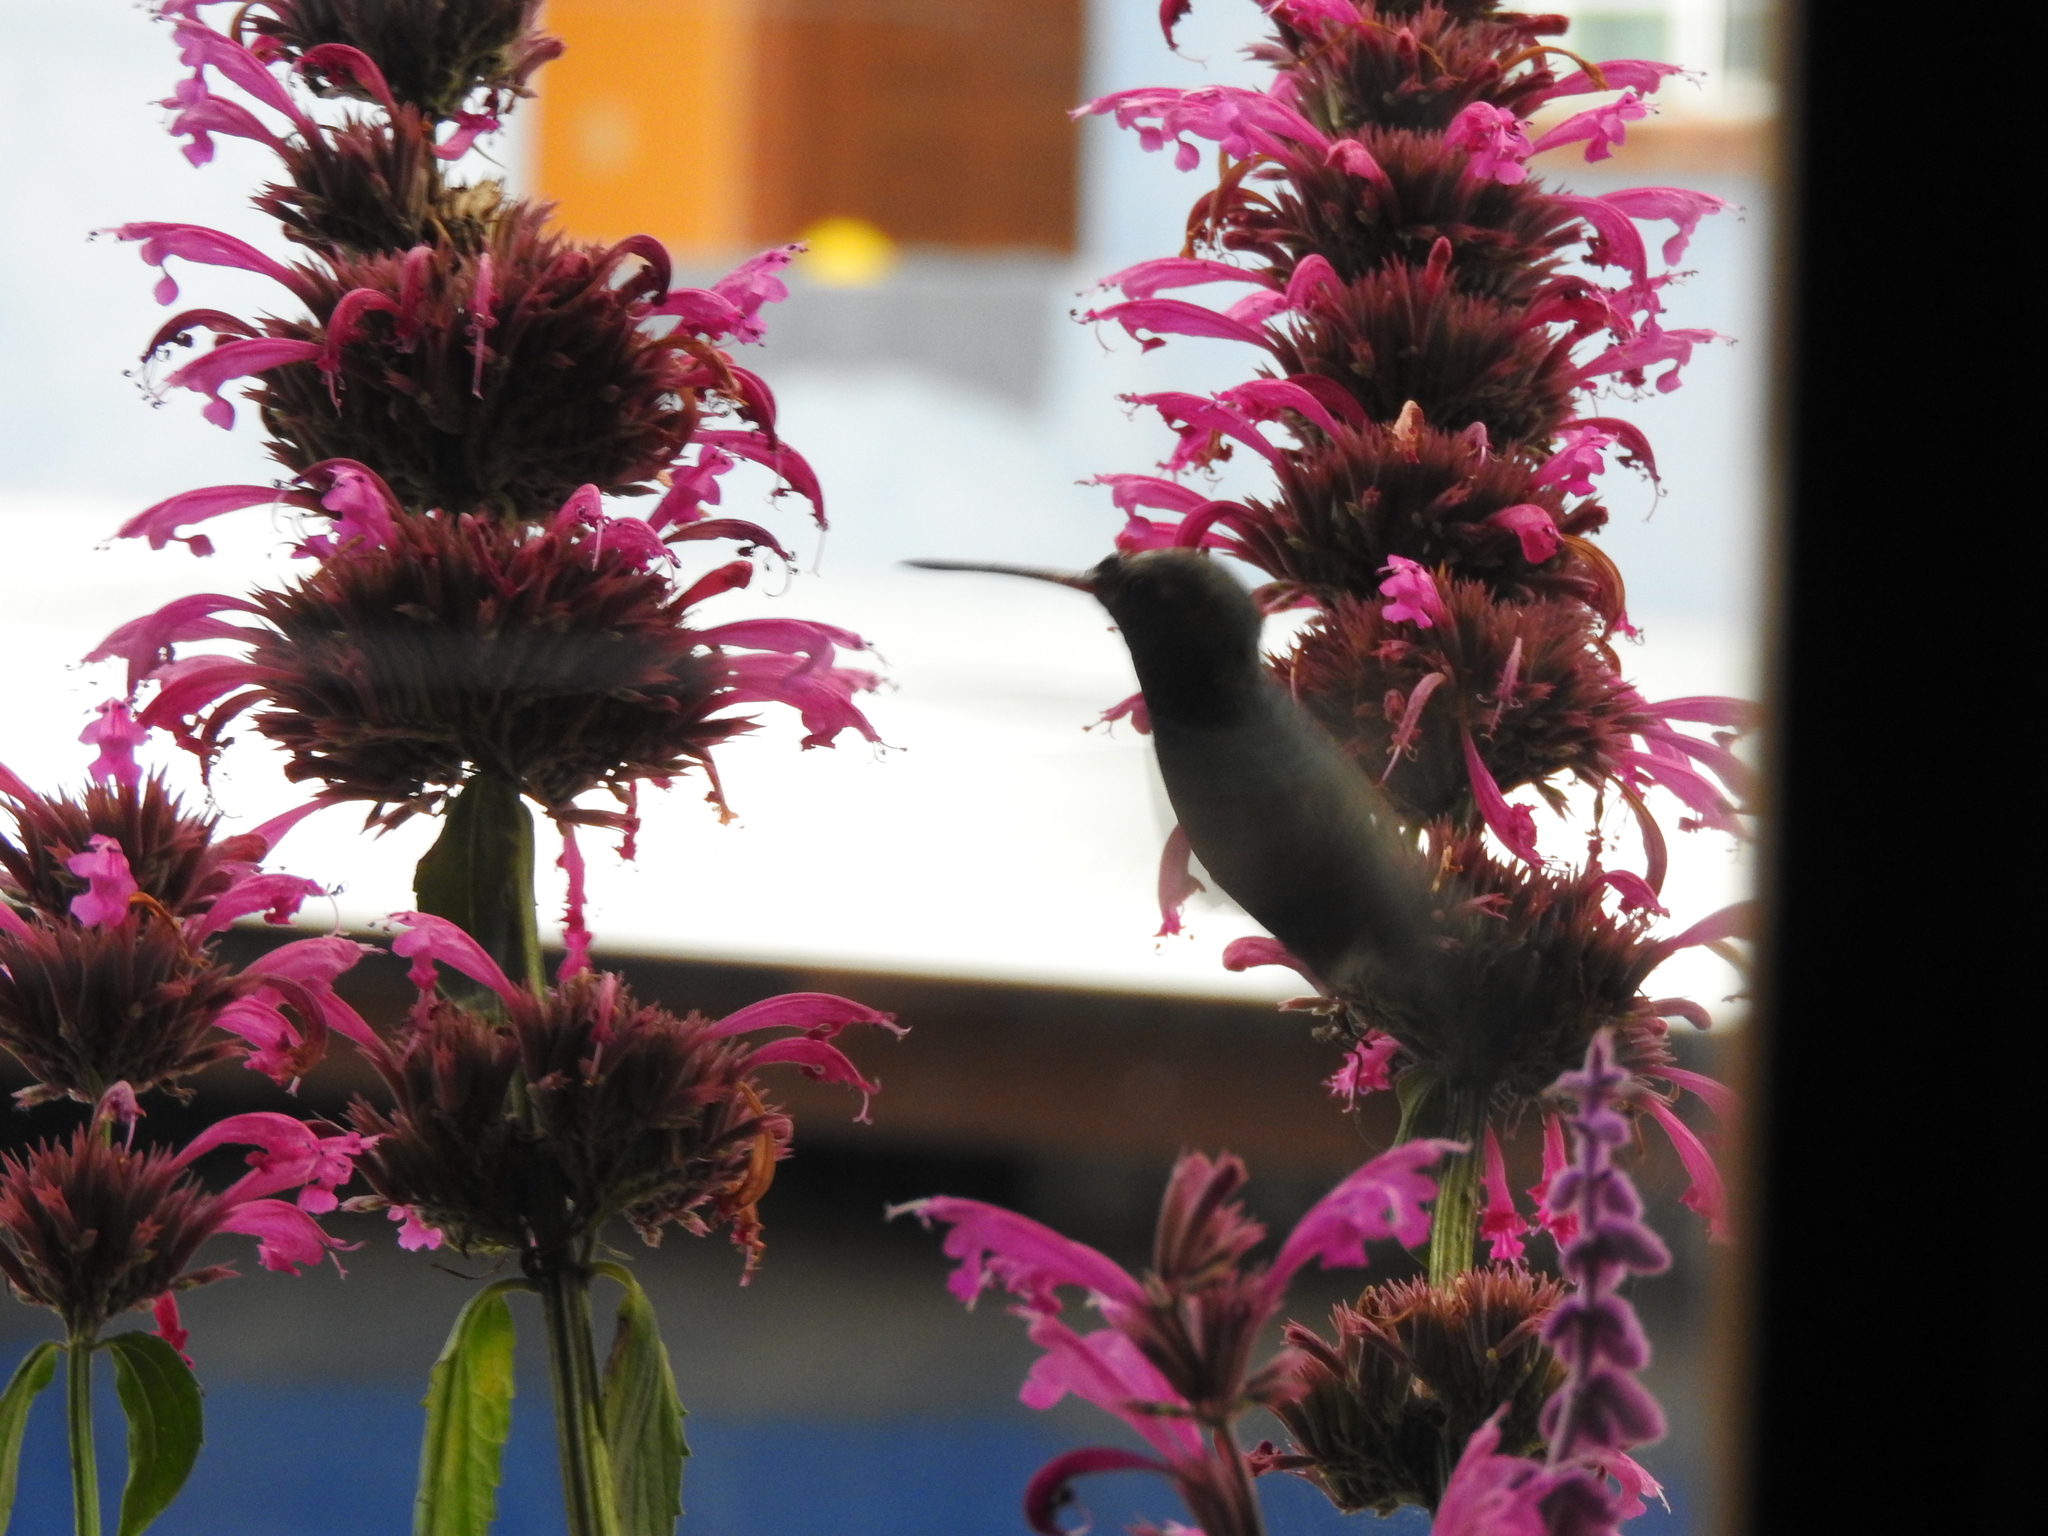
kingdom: Animalia
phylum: Chordata
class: Aves
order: Apodiformes
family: Trochilidae
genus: Cynanthus
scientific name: Cynanthus latirostris
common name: Broad-billed hummingbird
